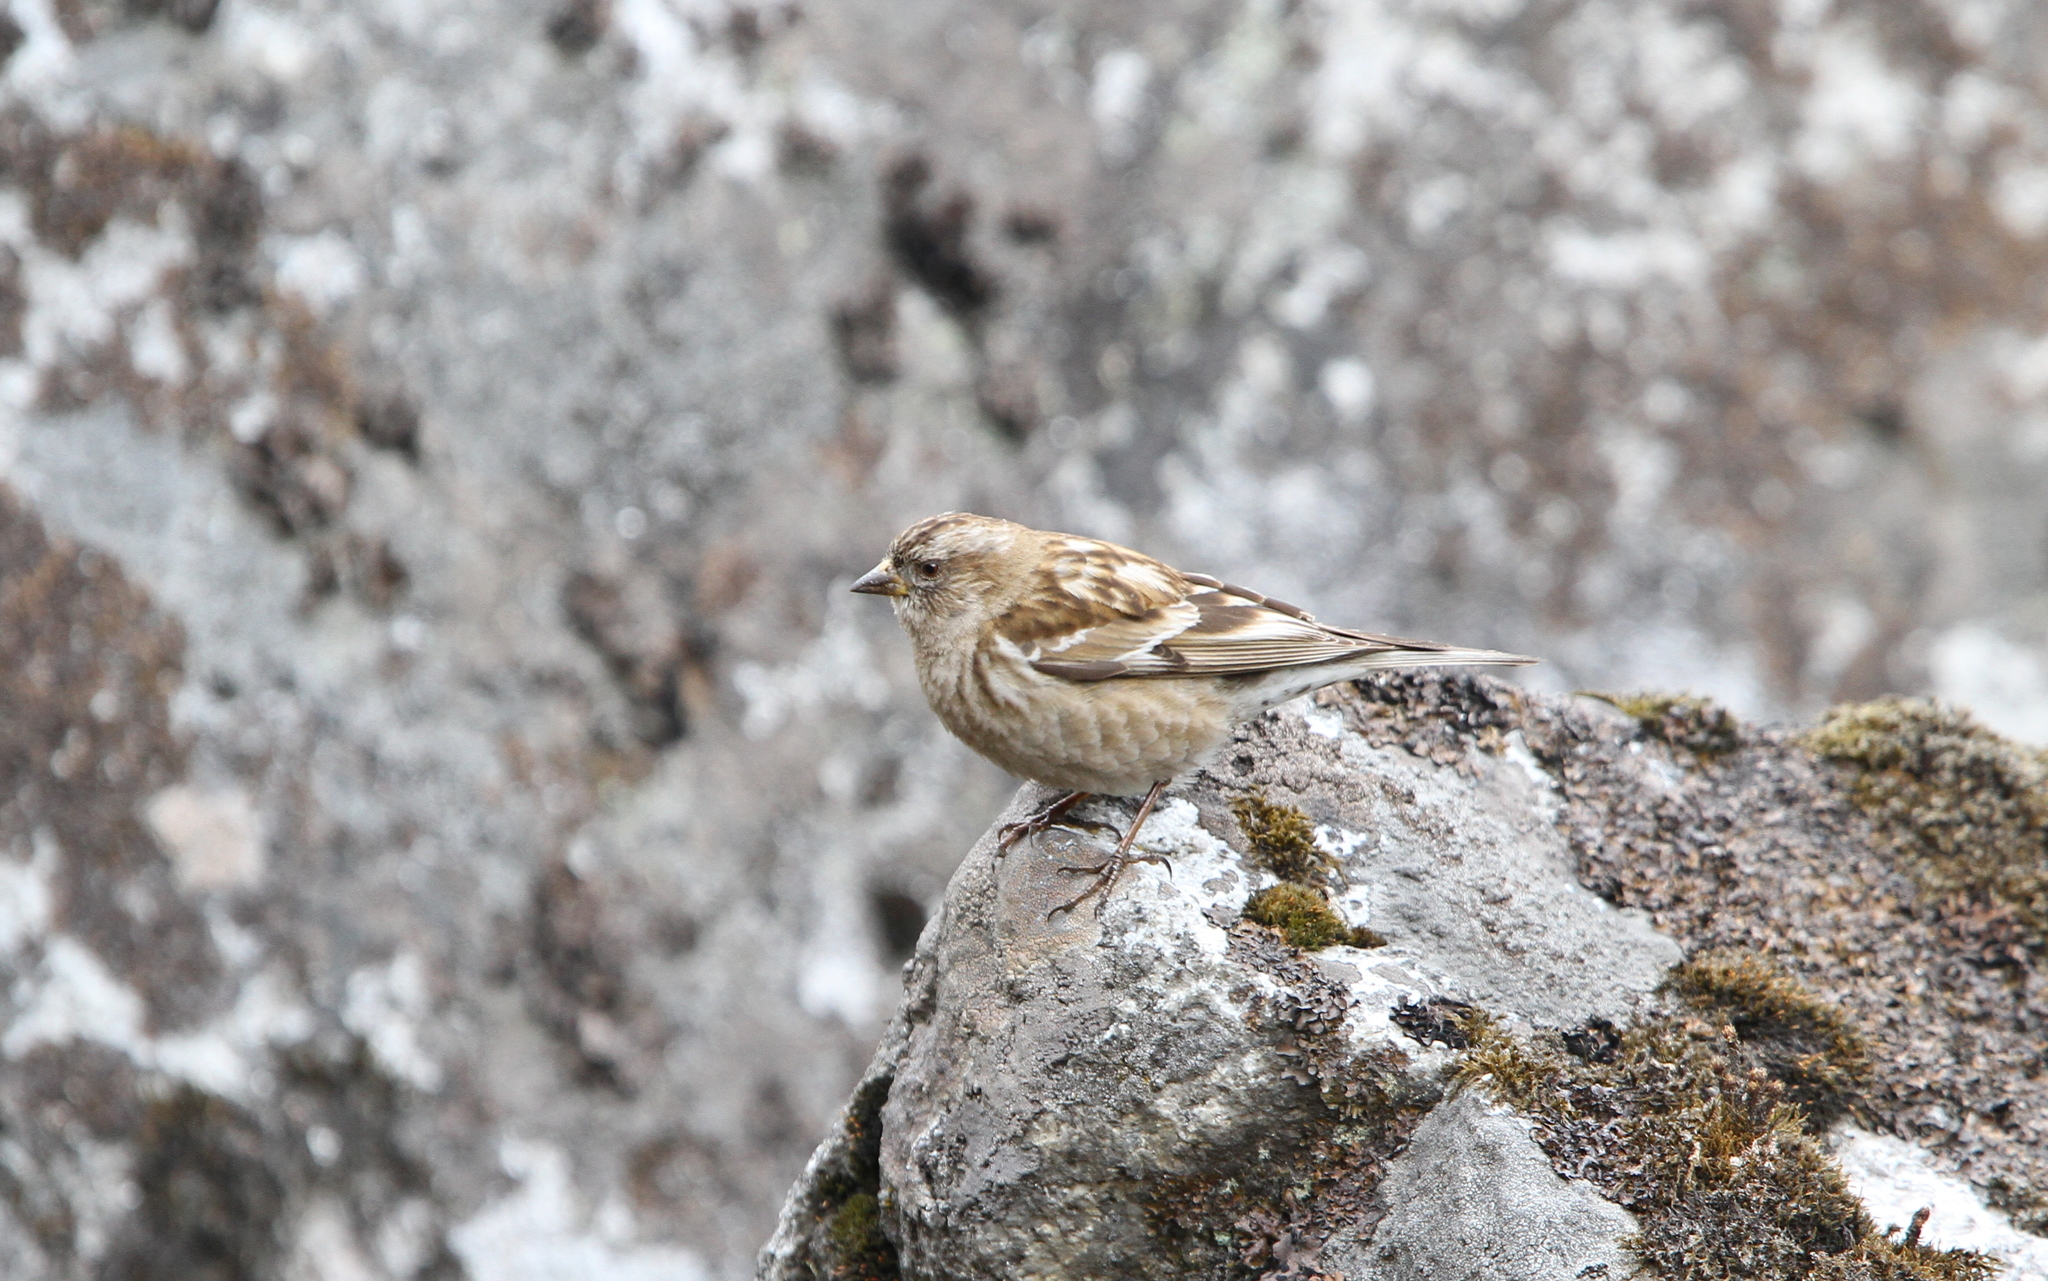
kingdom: Animalia
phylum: Chordata
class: Aves
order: Passeriformes
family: Fringillidae
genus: Leucosticte
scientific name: Leucosticte nemoricola
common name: Plain mountain finch
